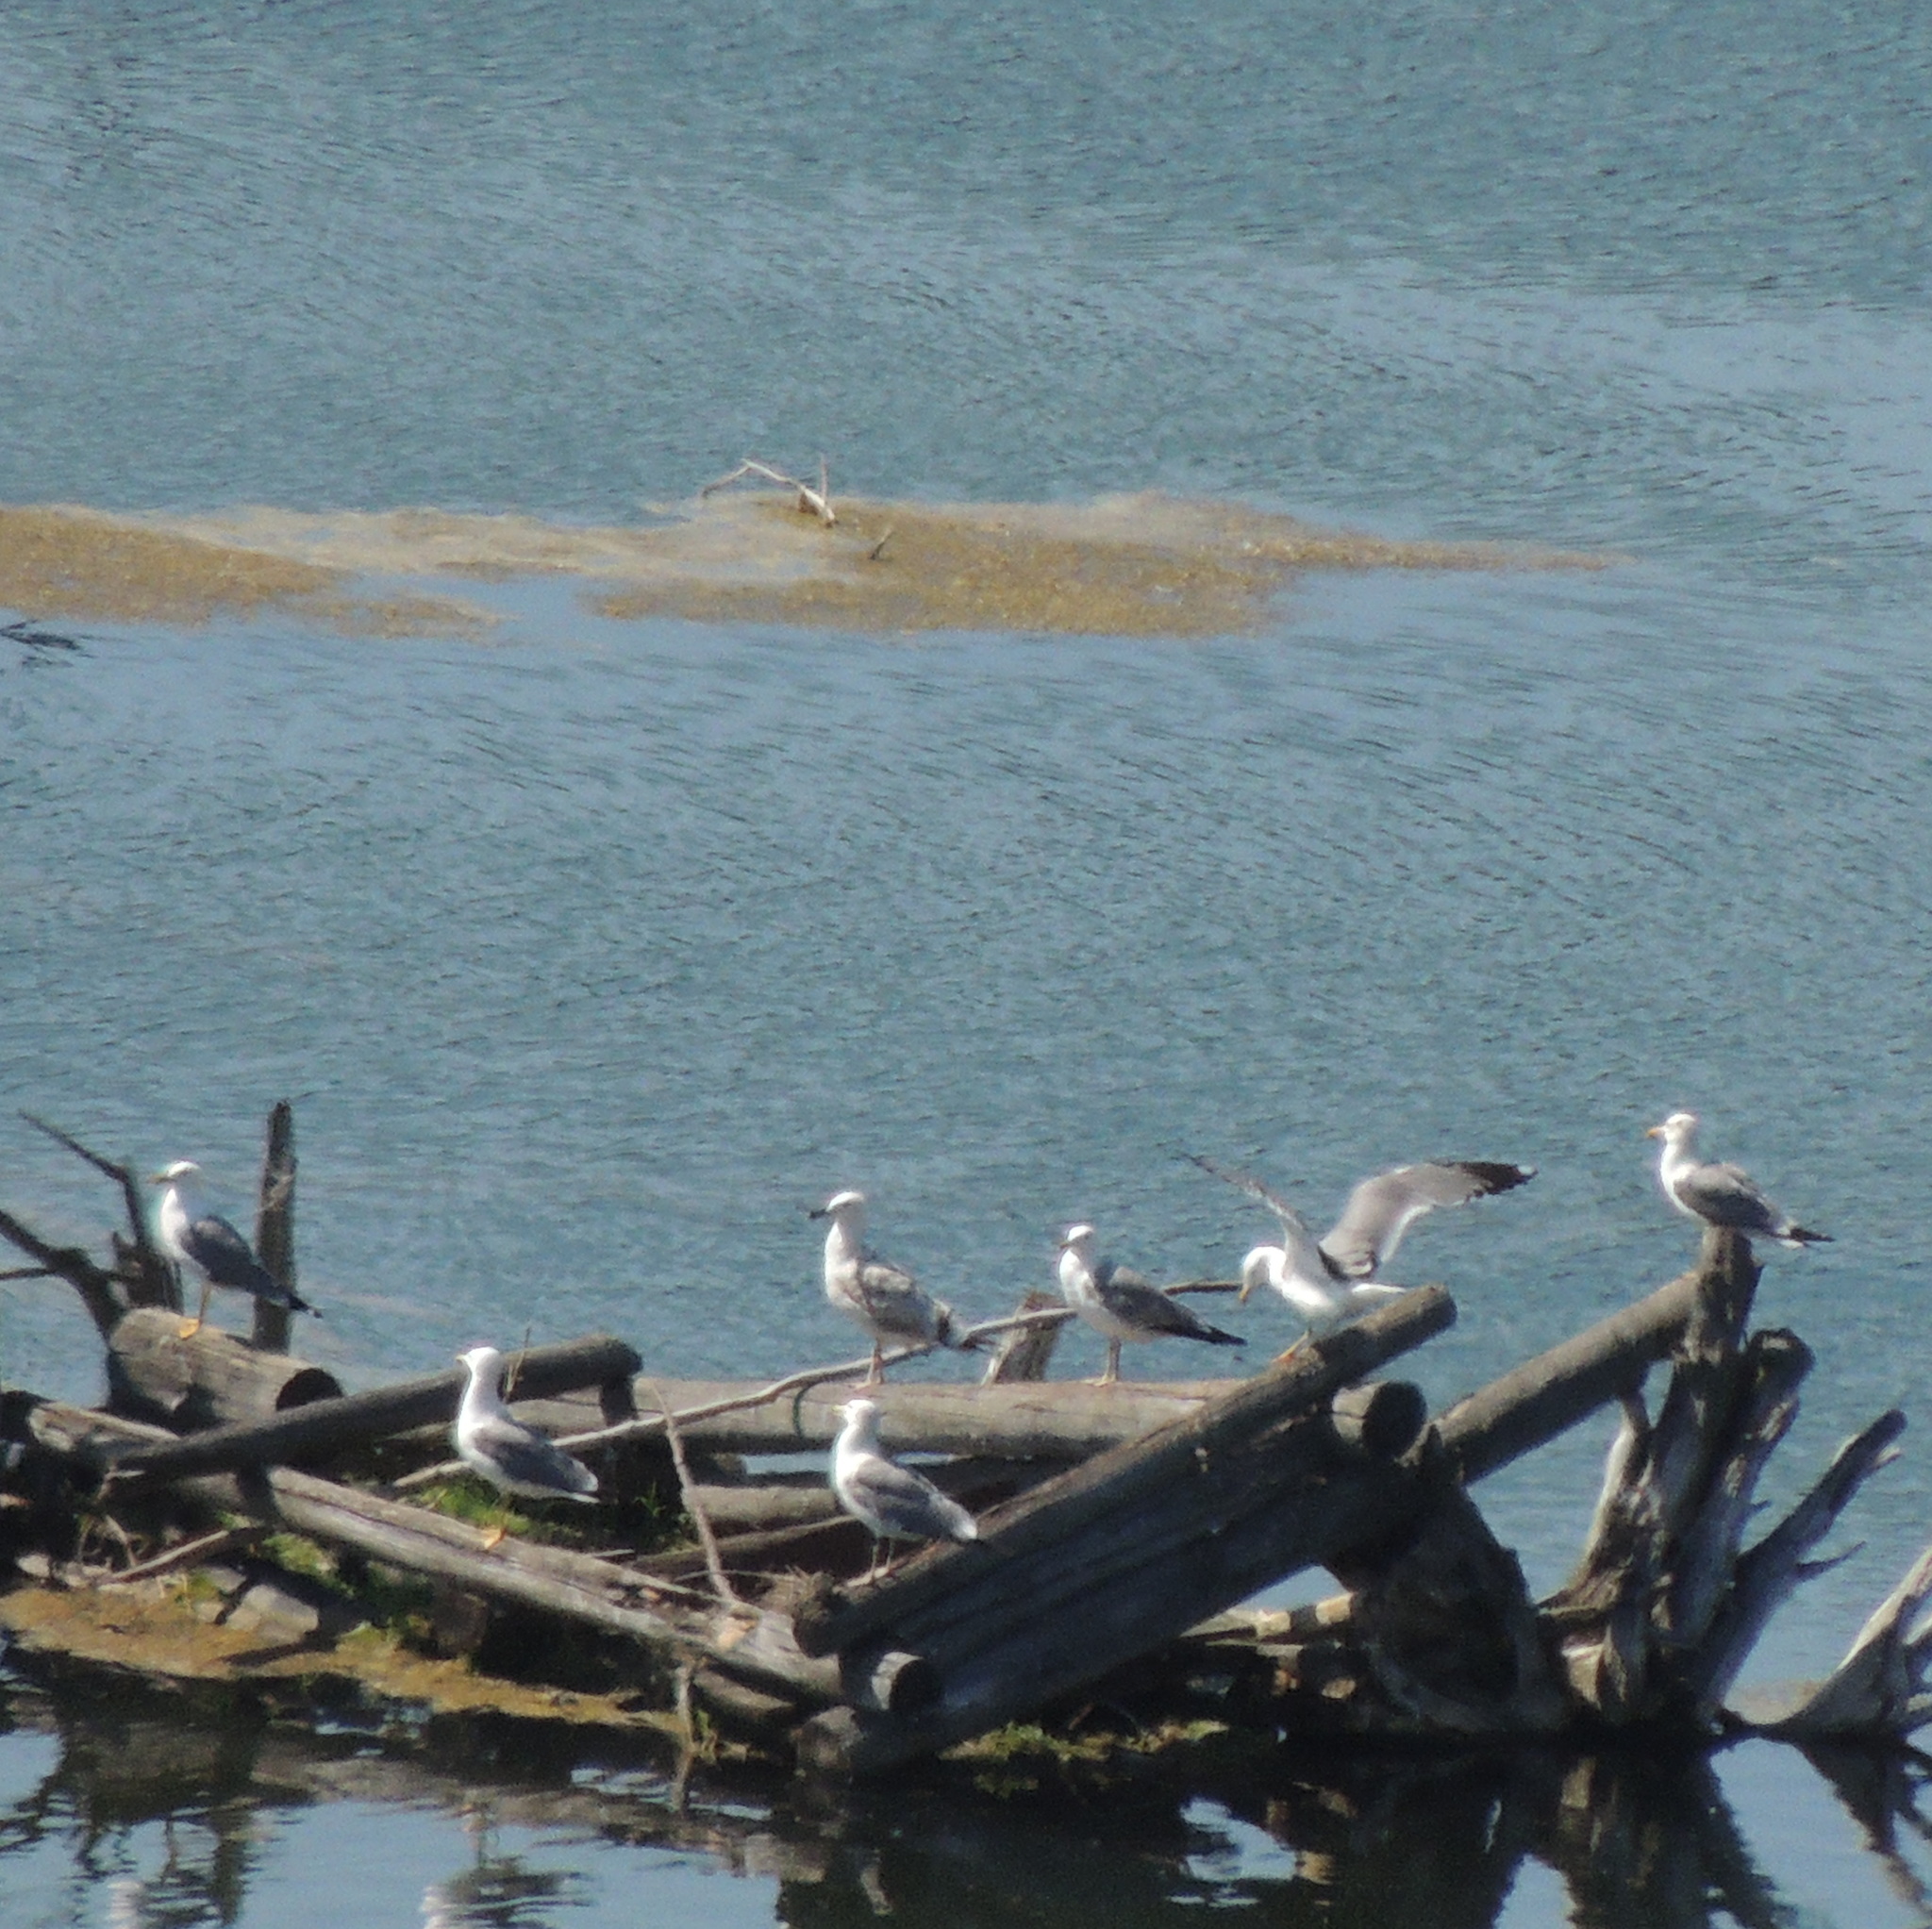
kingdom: Animalia
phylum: Chordata
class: Aves
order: Charadriiformes
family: Laridae
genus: Larus
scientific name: Larus fuscus
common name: Lesser black-backed gull
